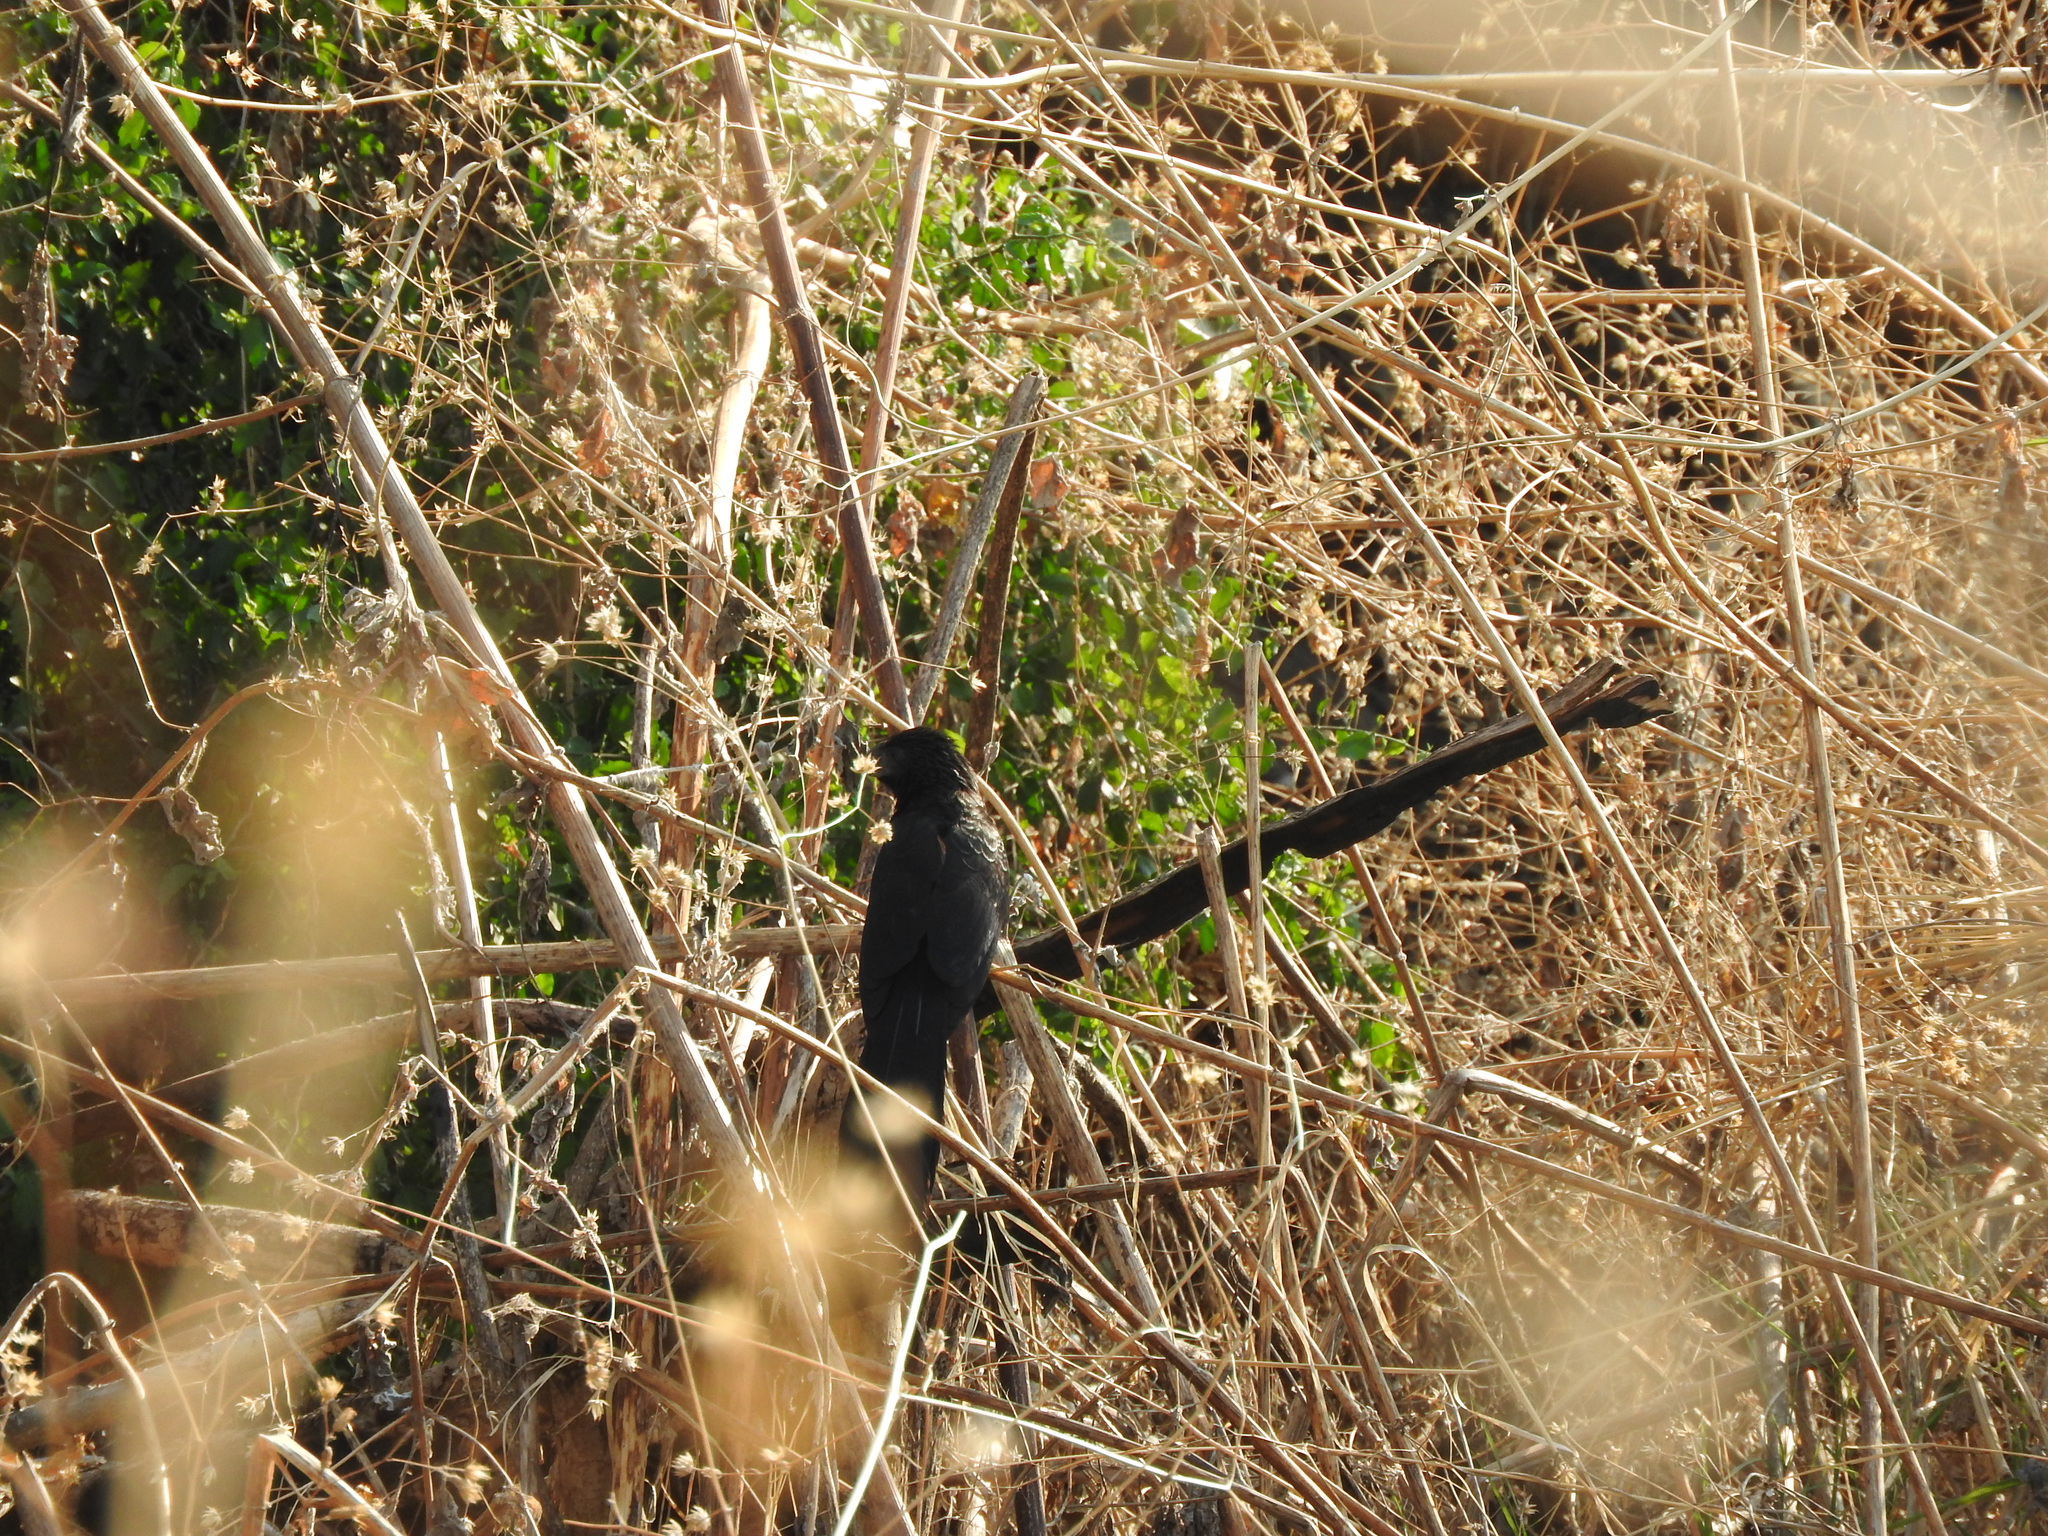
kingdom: Animalia
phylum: Chordata
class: Aves
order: Cuculiformes
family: Cuculidae
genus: Crotophaga
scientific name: Crotophaga sulcirostris
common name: Groove-billed ani
